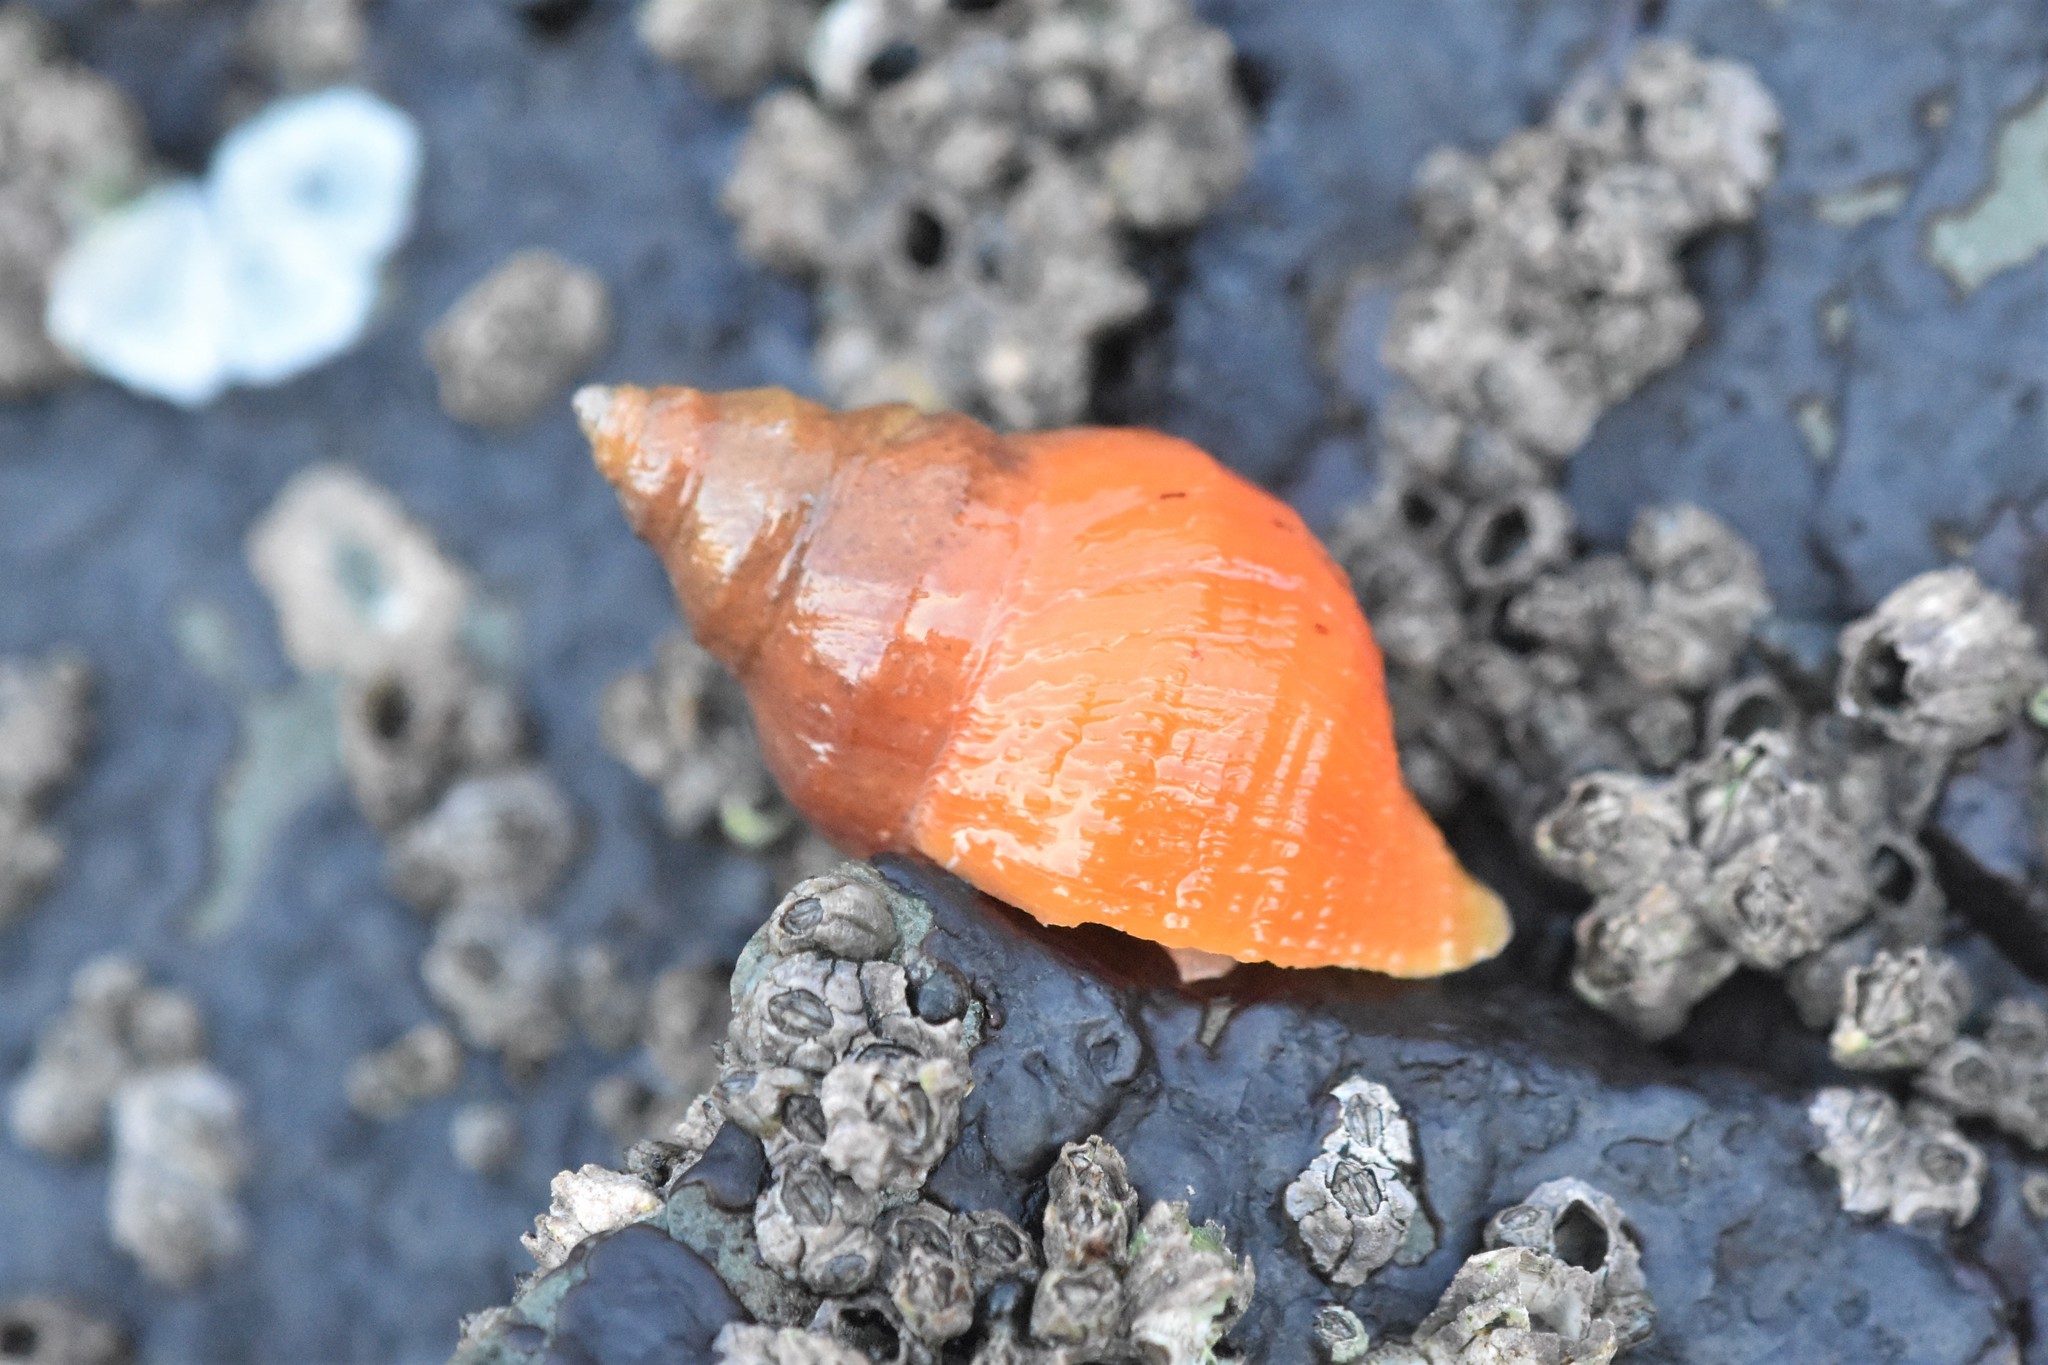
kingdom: Animalia
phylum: Mollusca
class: Gastropoda
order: Neogastropoda
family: Muricidae
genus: Nucella
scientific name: Nucella lamellosa
